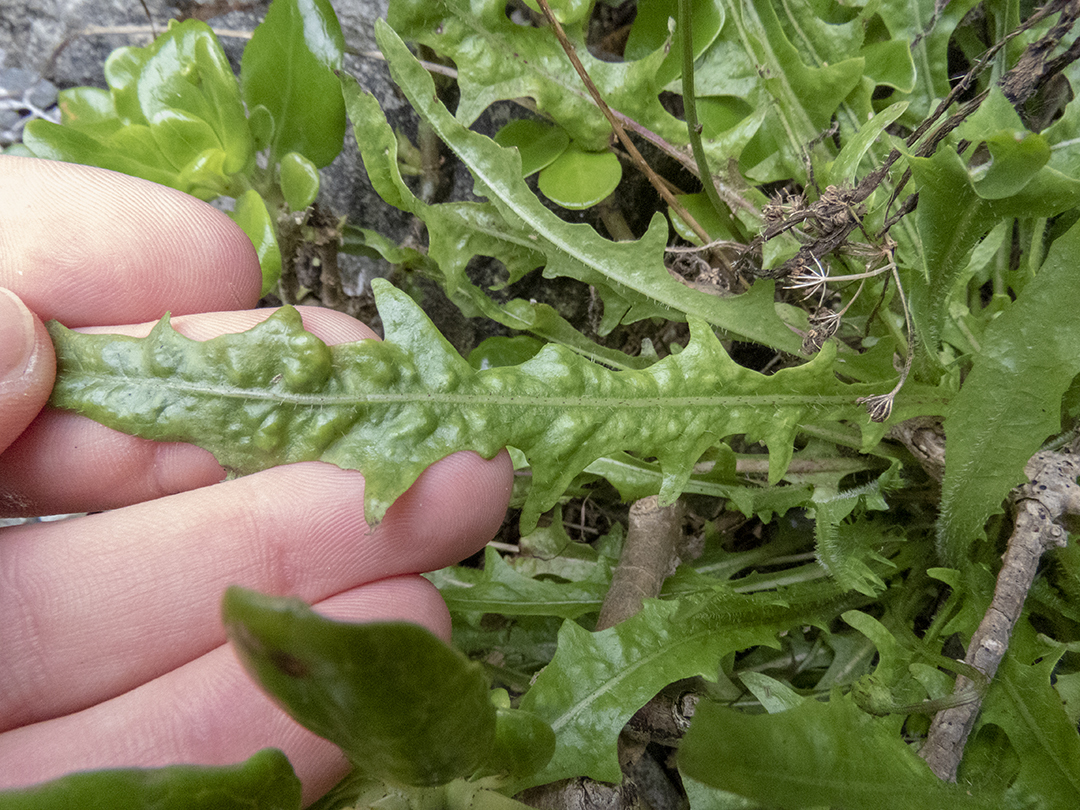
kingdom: Plantae
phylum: Tracheophyta
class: Magnoliopsida
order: Asterales
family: Asteraceae
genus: Hypochaeris
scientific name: Hypochaeris radicata
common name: Flatweed
